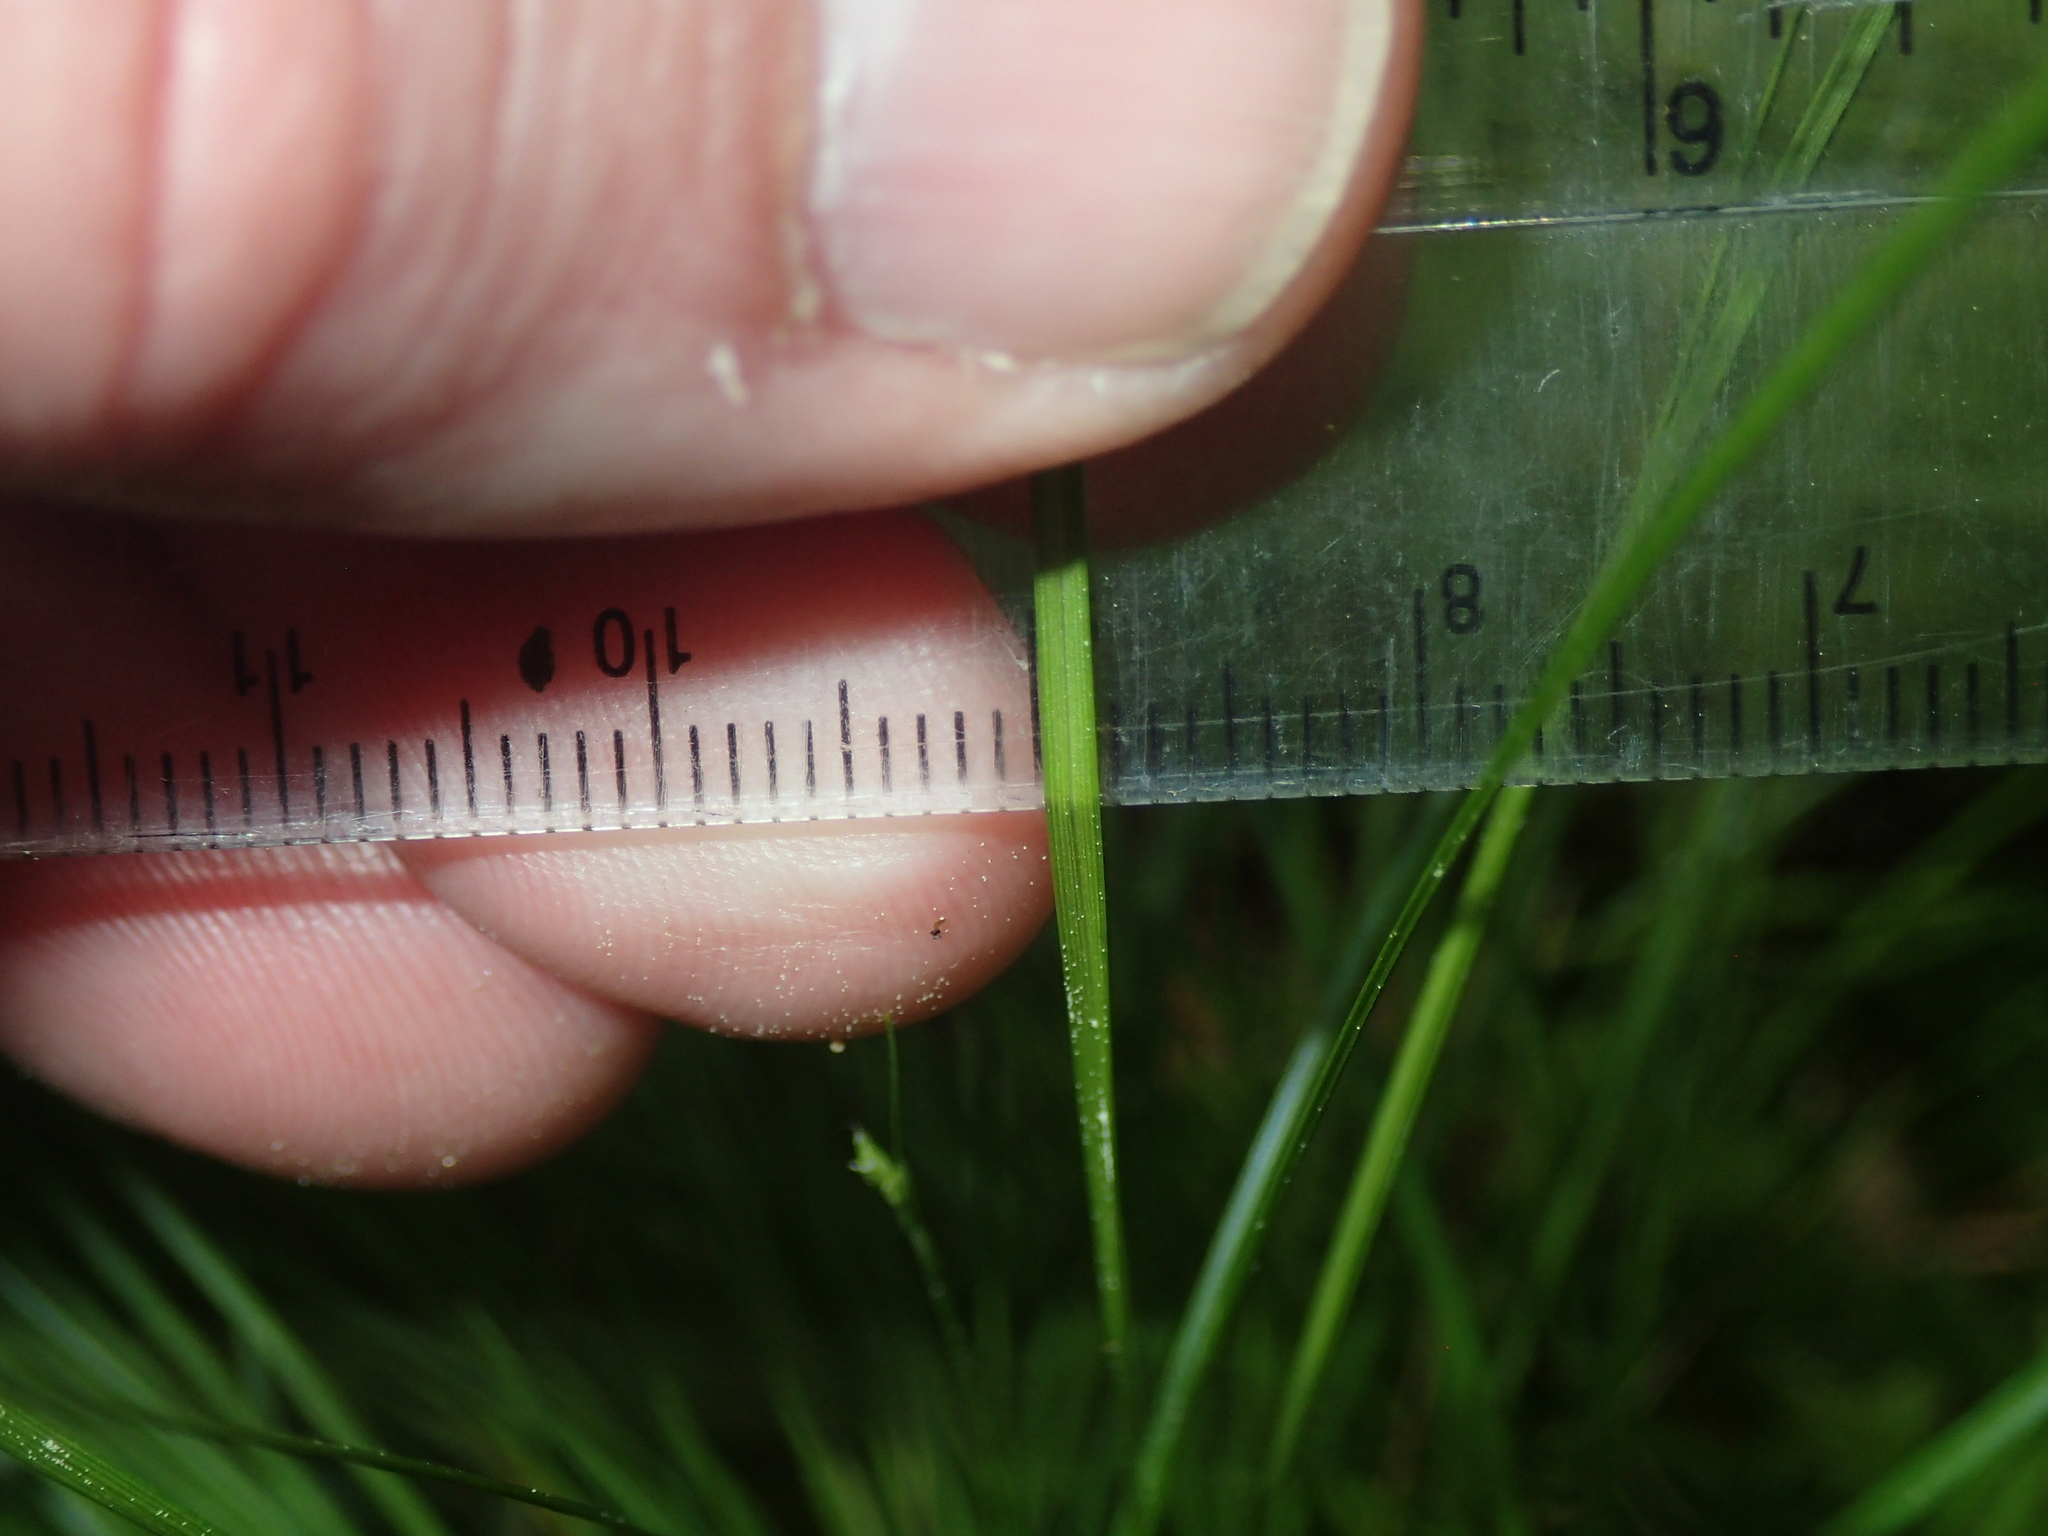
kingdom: Plantae
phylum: Tracheophyta
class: Liliopsida
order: Poales
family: Cyperaceae
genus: Carex
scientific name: Carex atlantica
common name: Atlantic sedge
